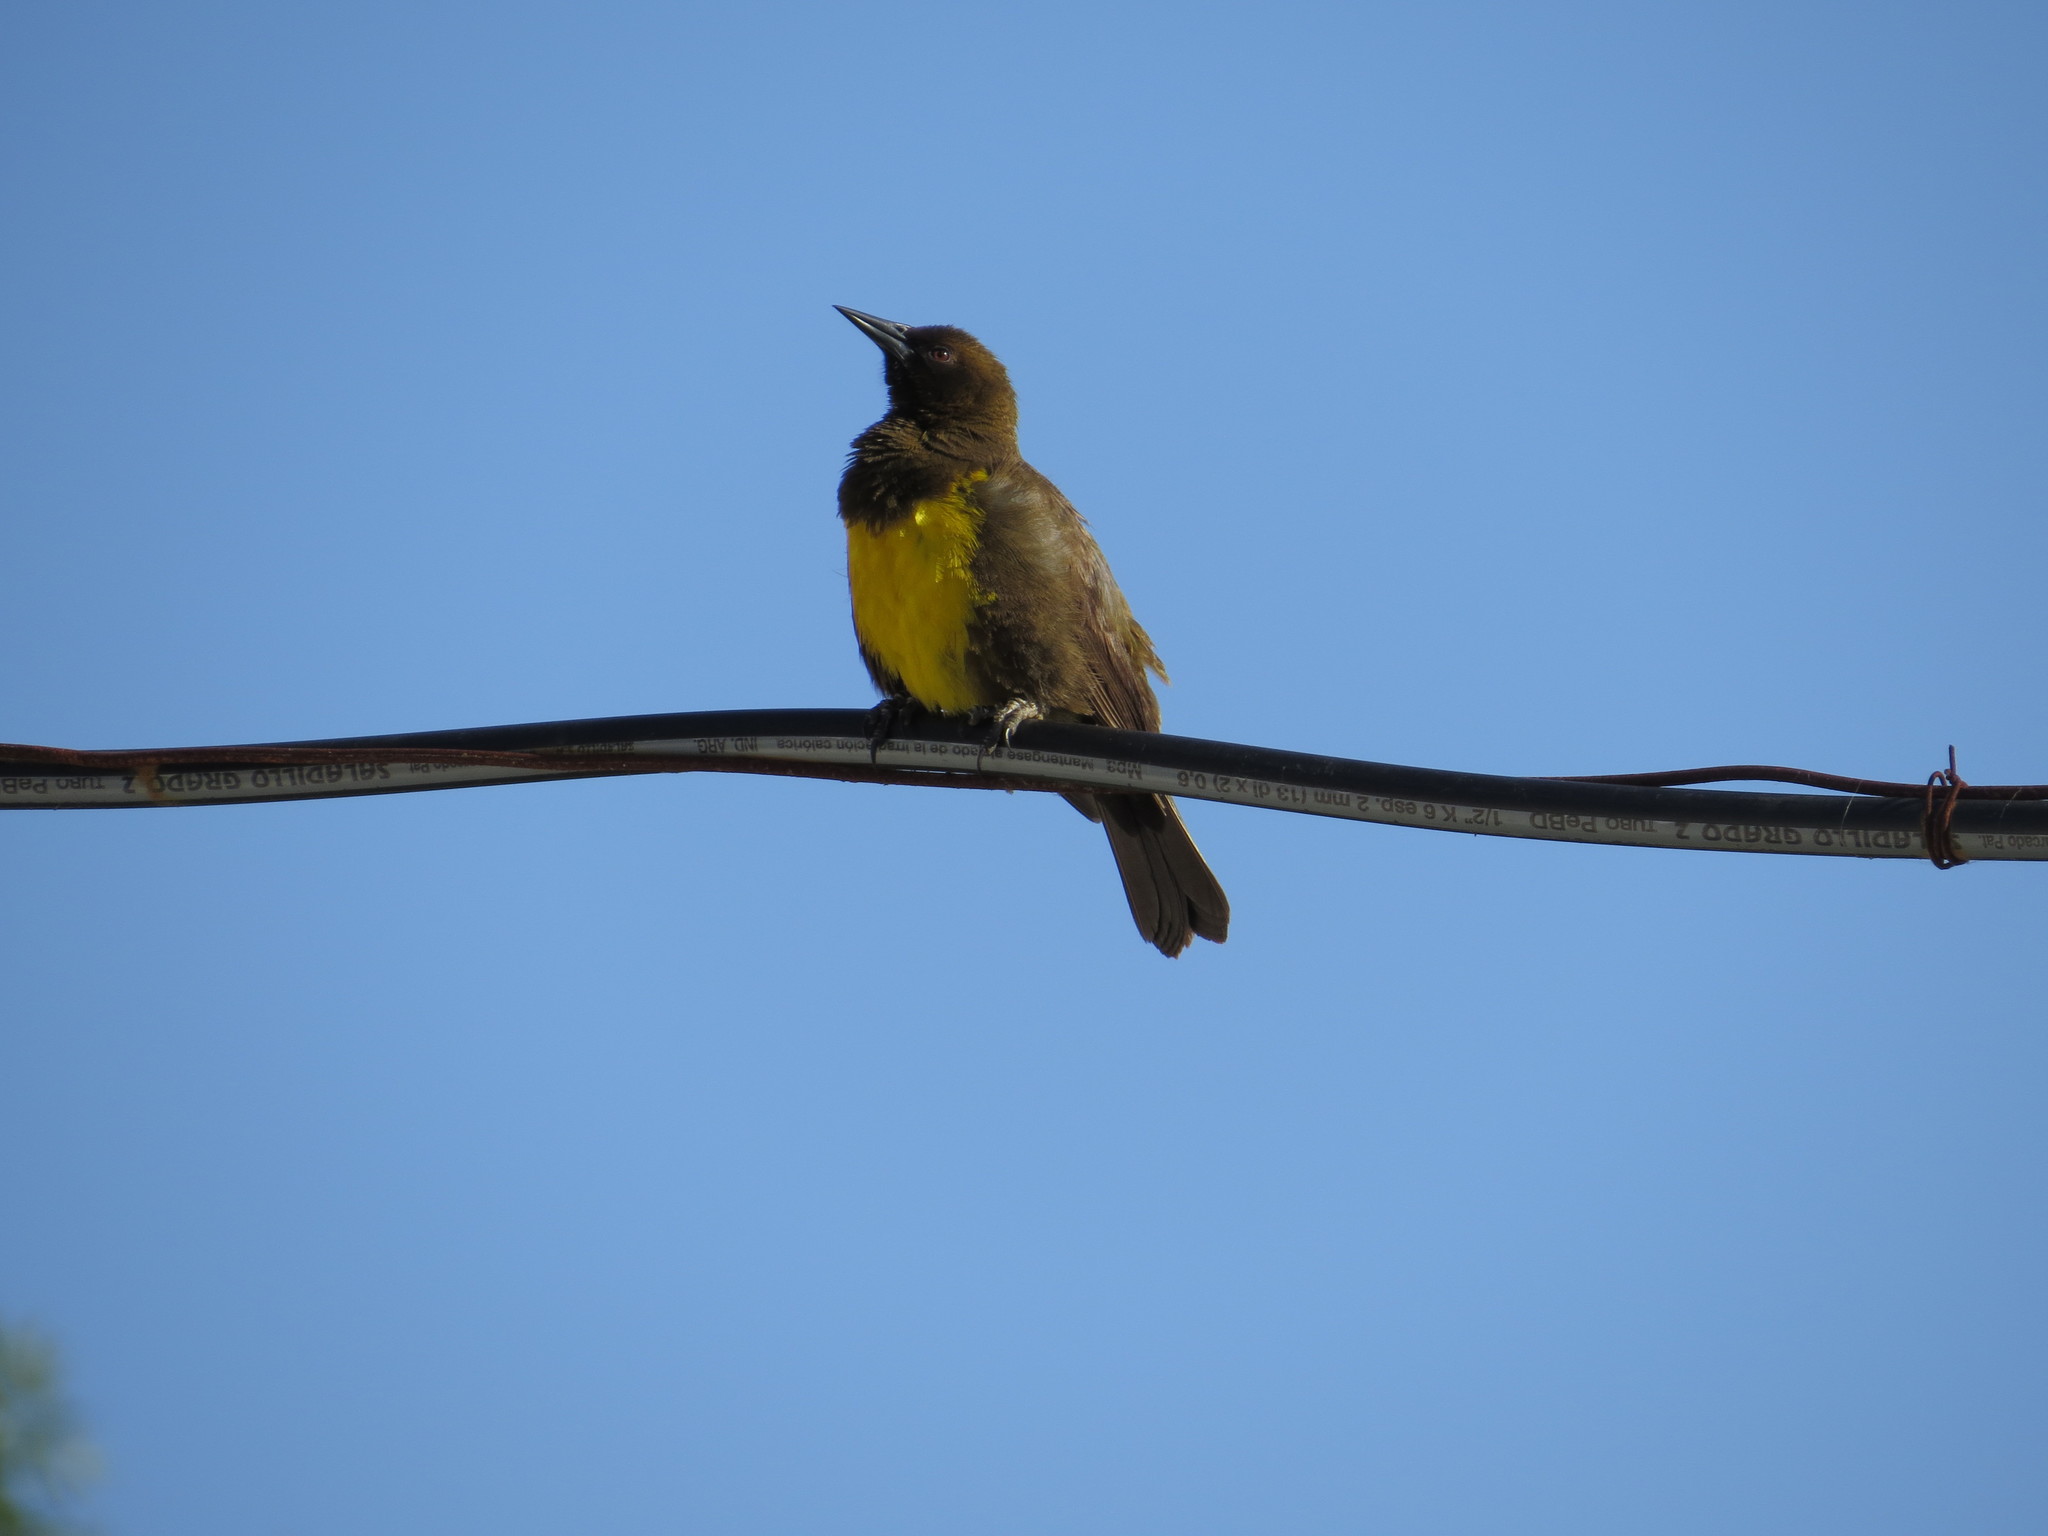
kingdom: Animalia
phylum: Chordata
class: Aves
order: Passeriformes
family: Icteridae
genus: Pseudoleistes
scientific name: Pseudoleistes virescens
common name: Brown-and-yellow marshbird
